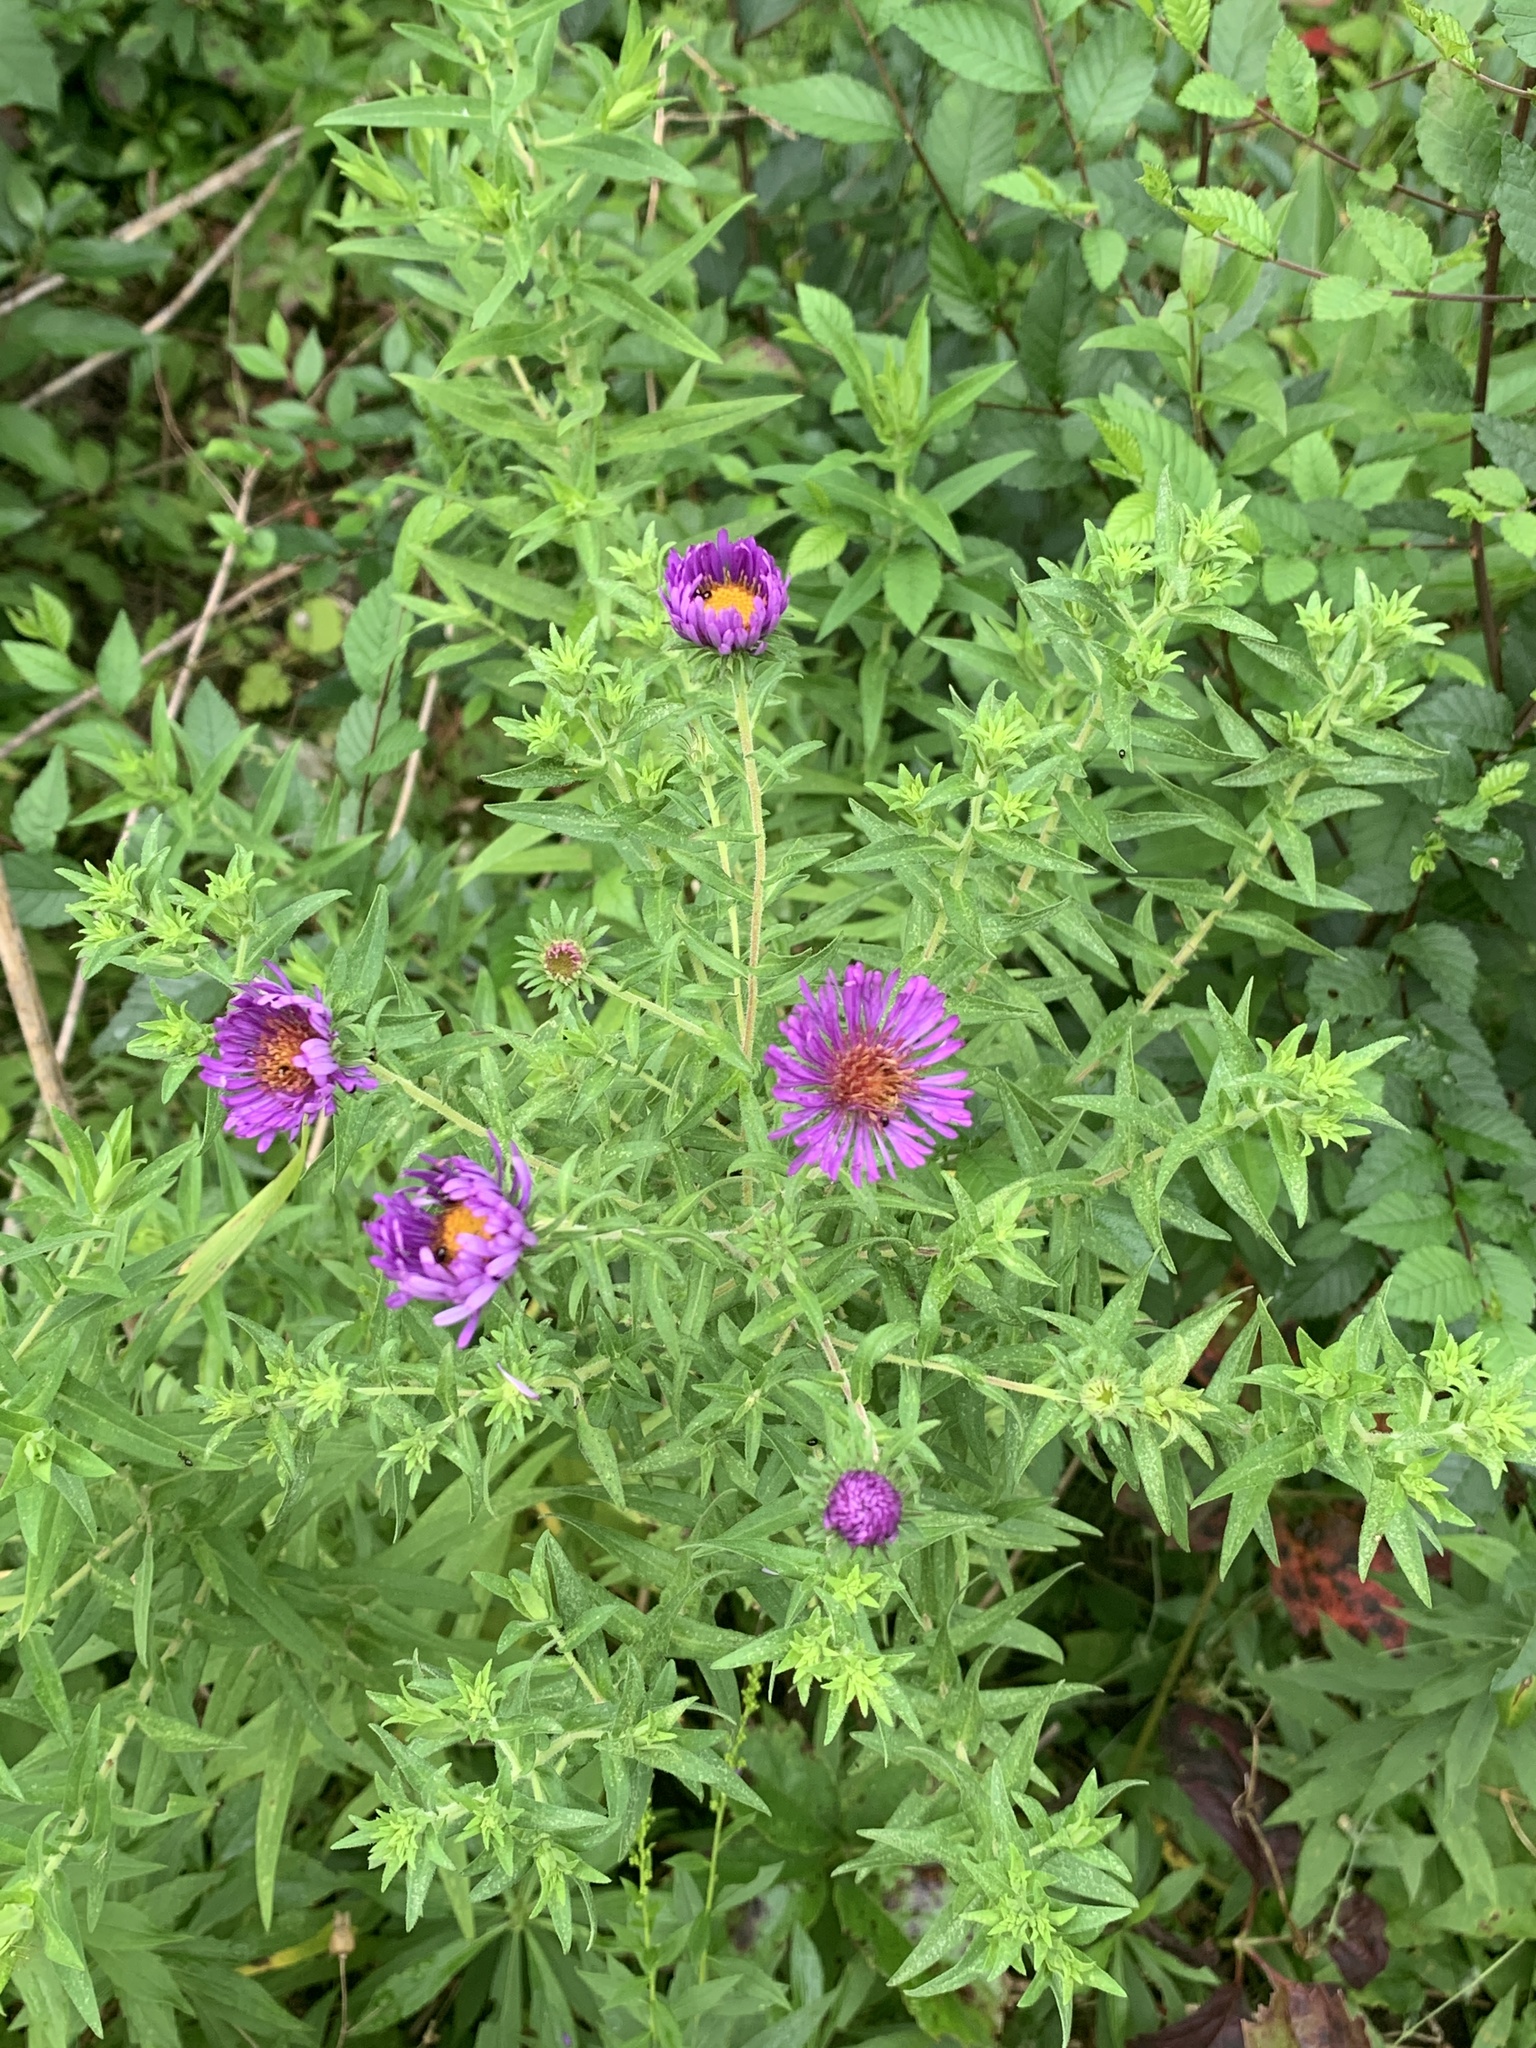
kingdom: Plantae
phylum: Tracheophyta
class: Magnoliopsida
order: Asterales
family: Asteraceae
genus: Symphyotrichum
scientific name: Symphyotrichum novae-angliae
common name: Michaelmas daisy
